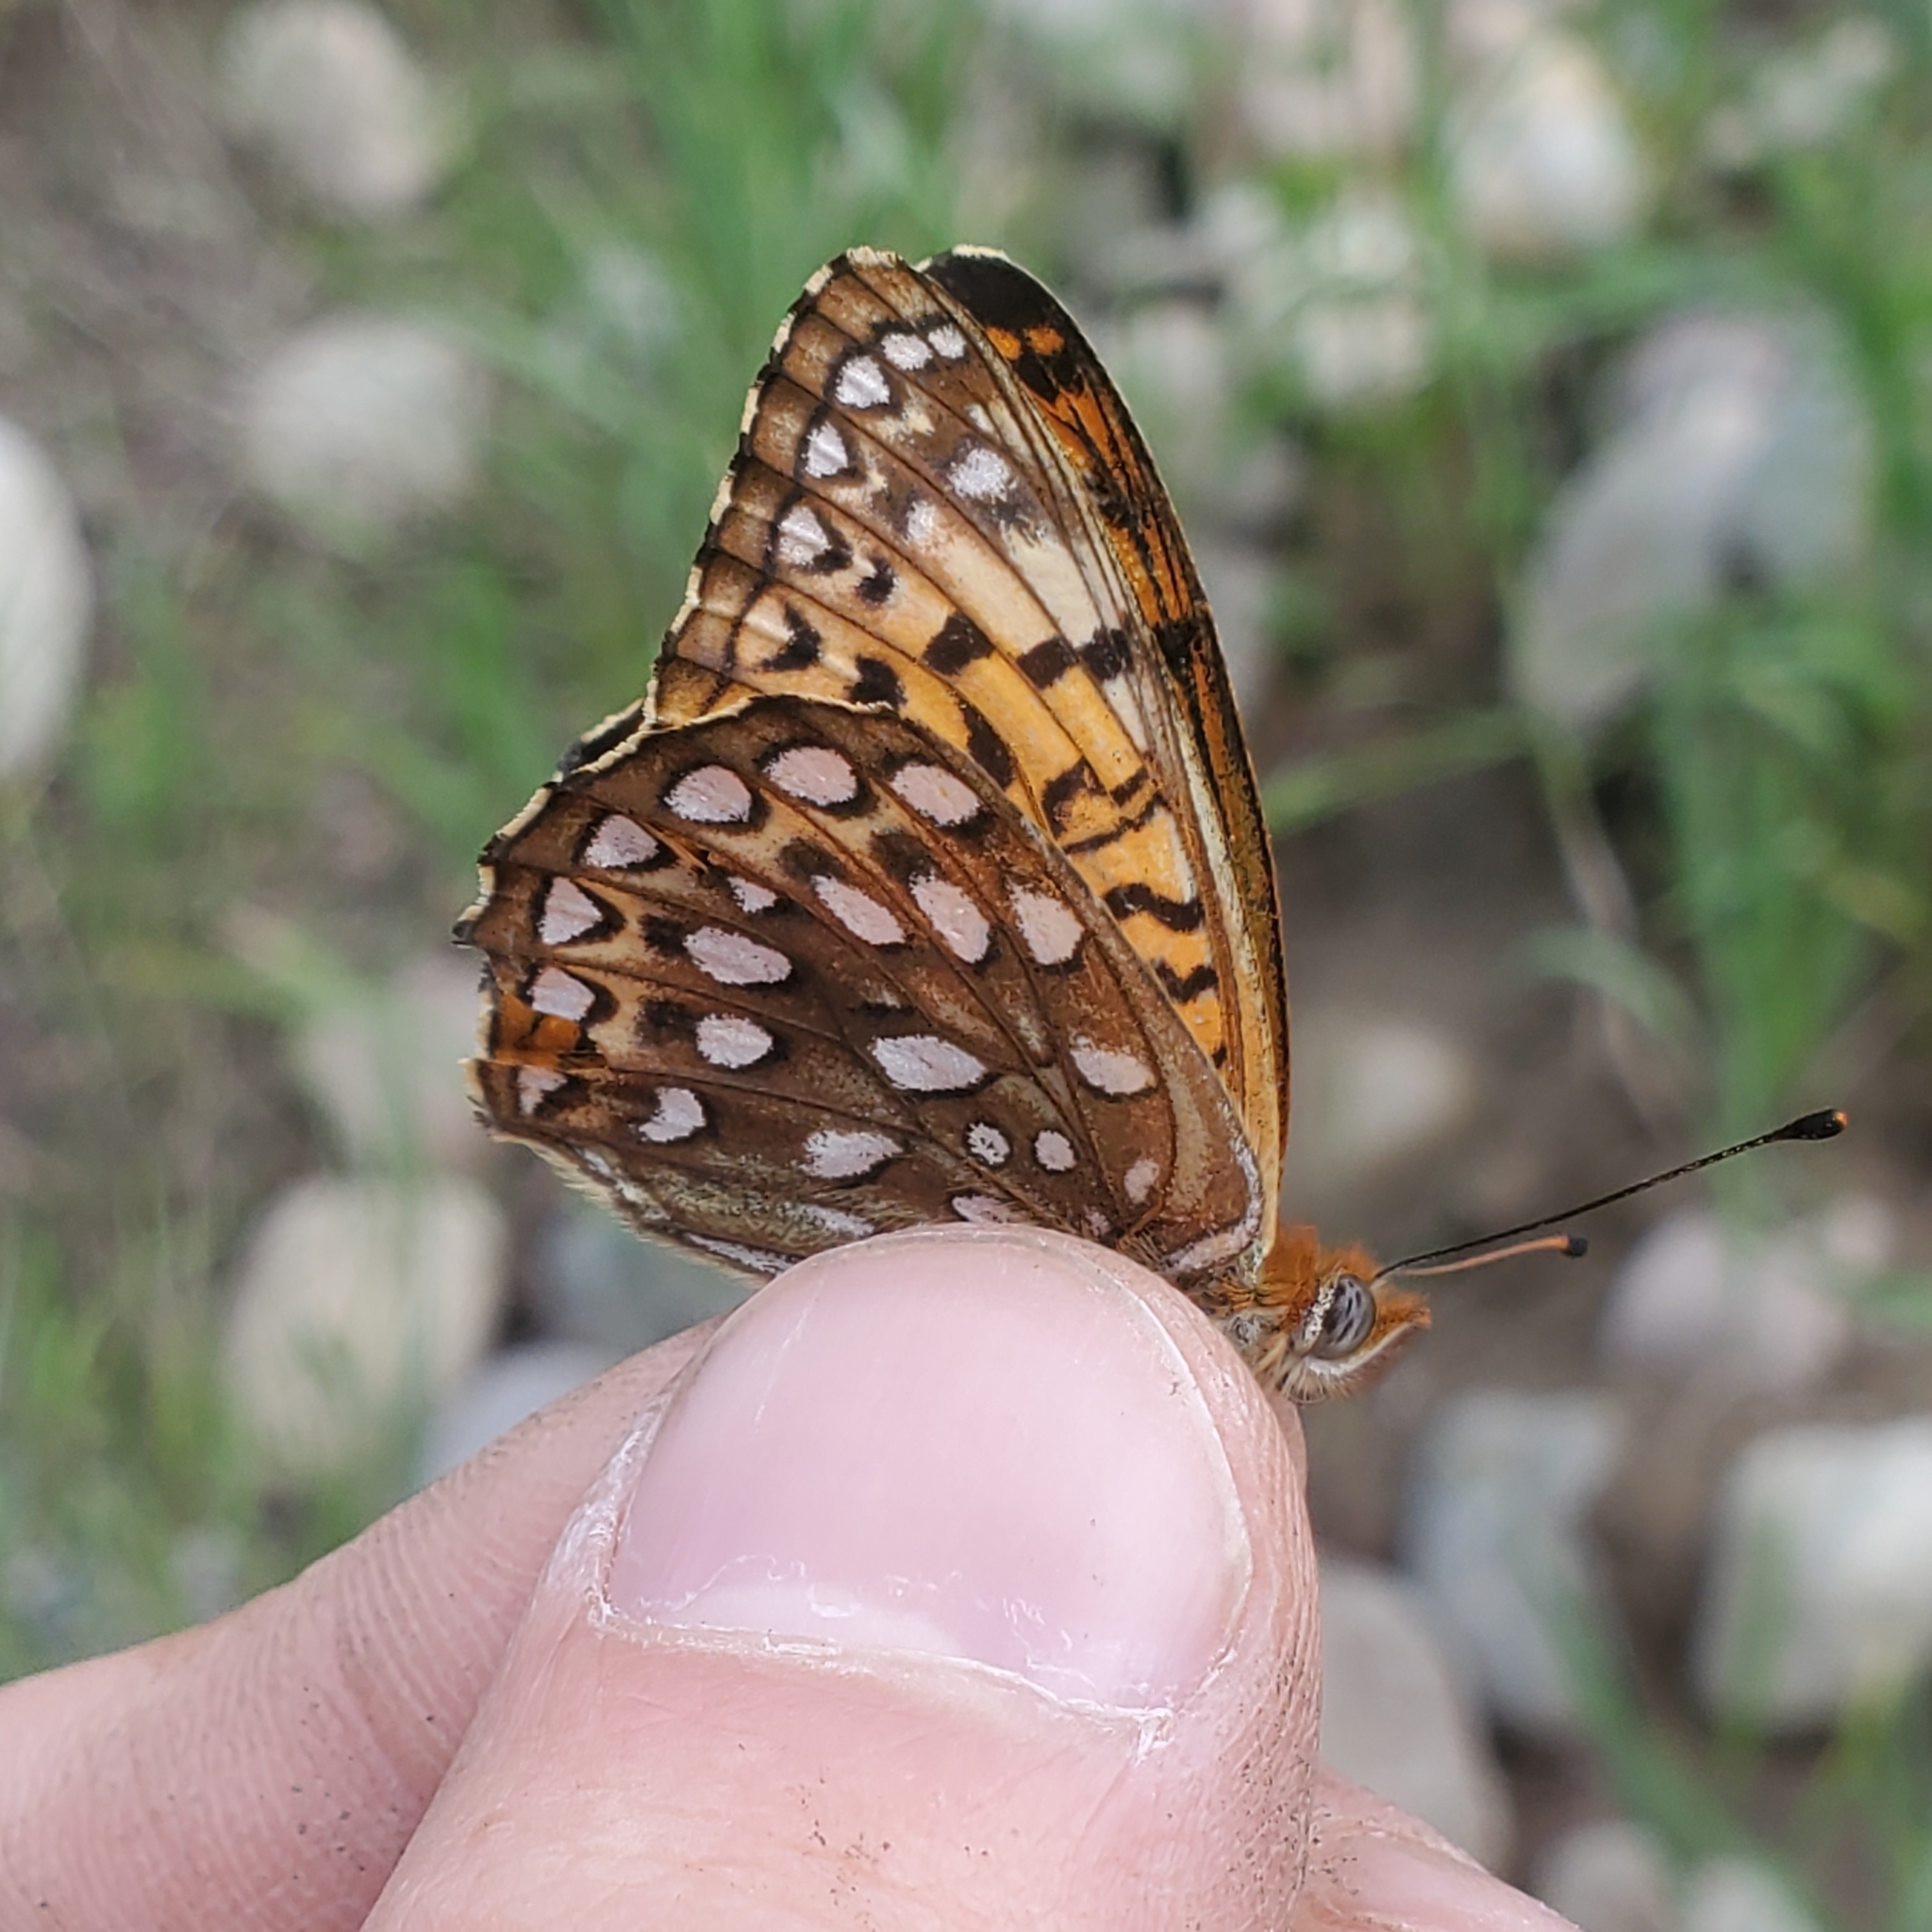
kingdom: Animalia
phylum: Arthropoda
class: Insecta
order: Lepidoptera
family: Nymphalidae
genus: Speyeria
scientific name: Speyeria atlantis
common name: Atlantis fritillary
